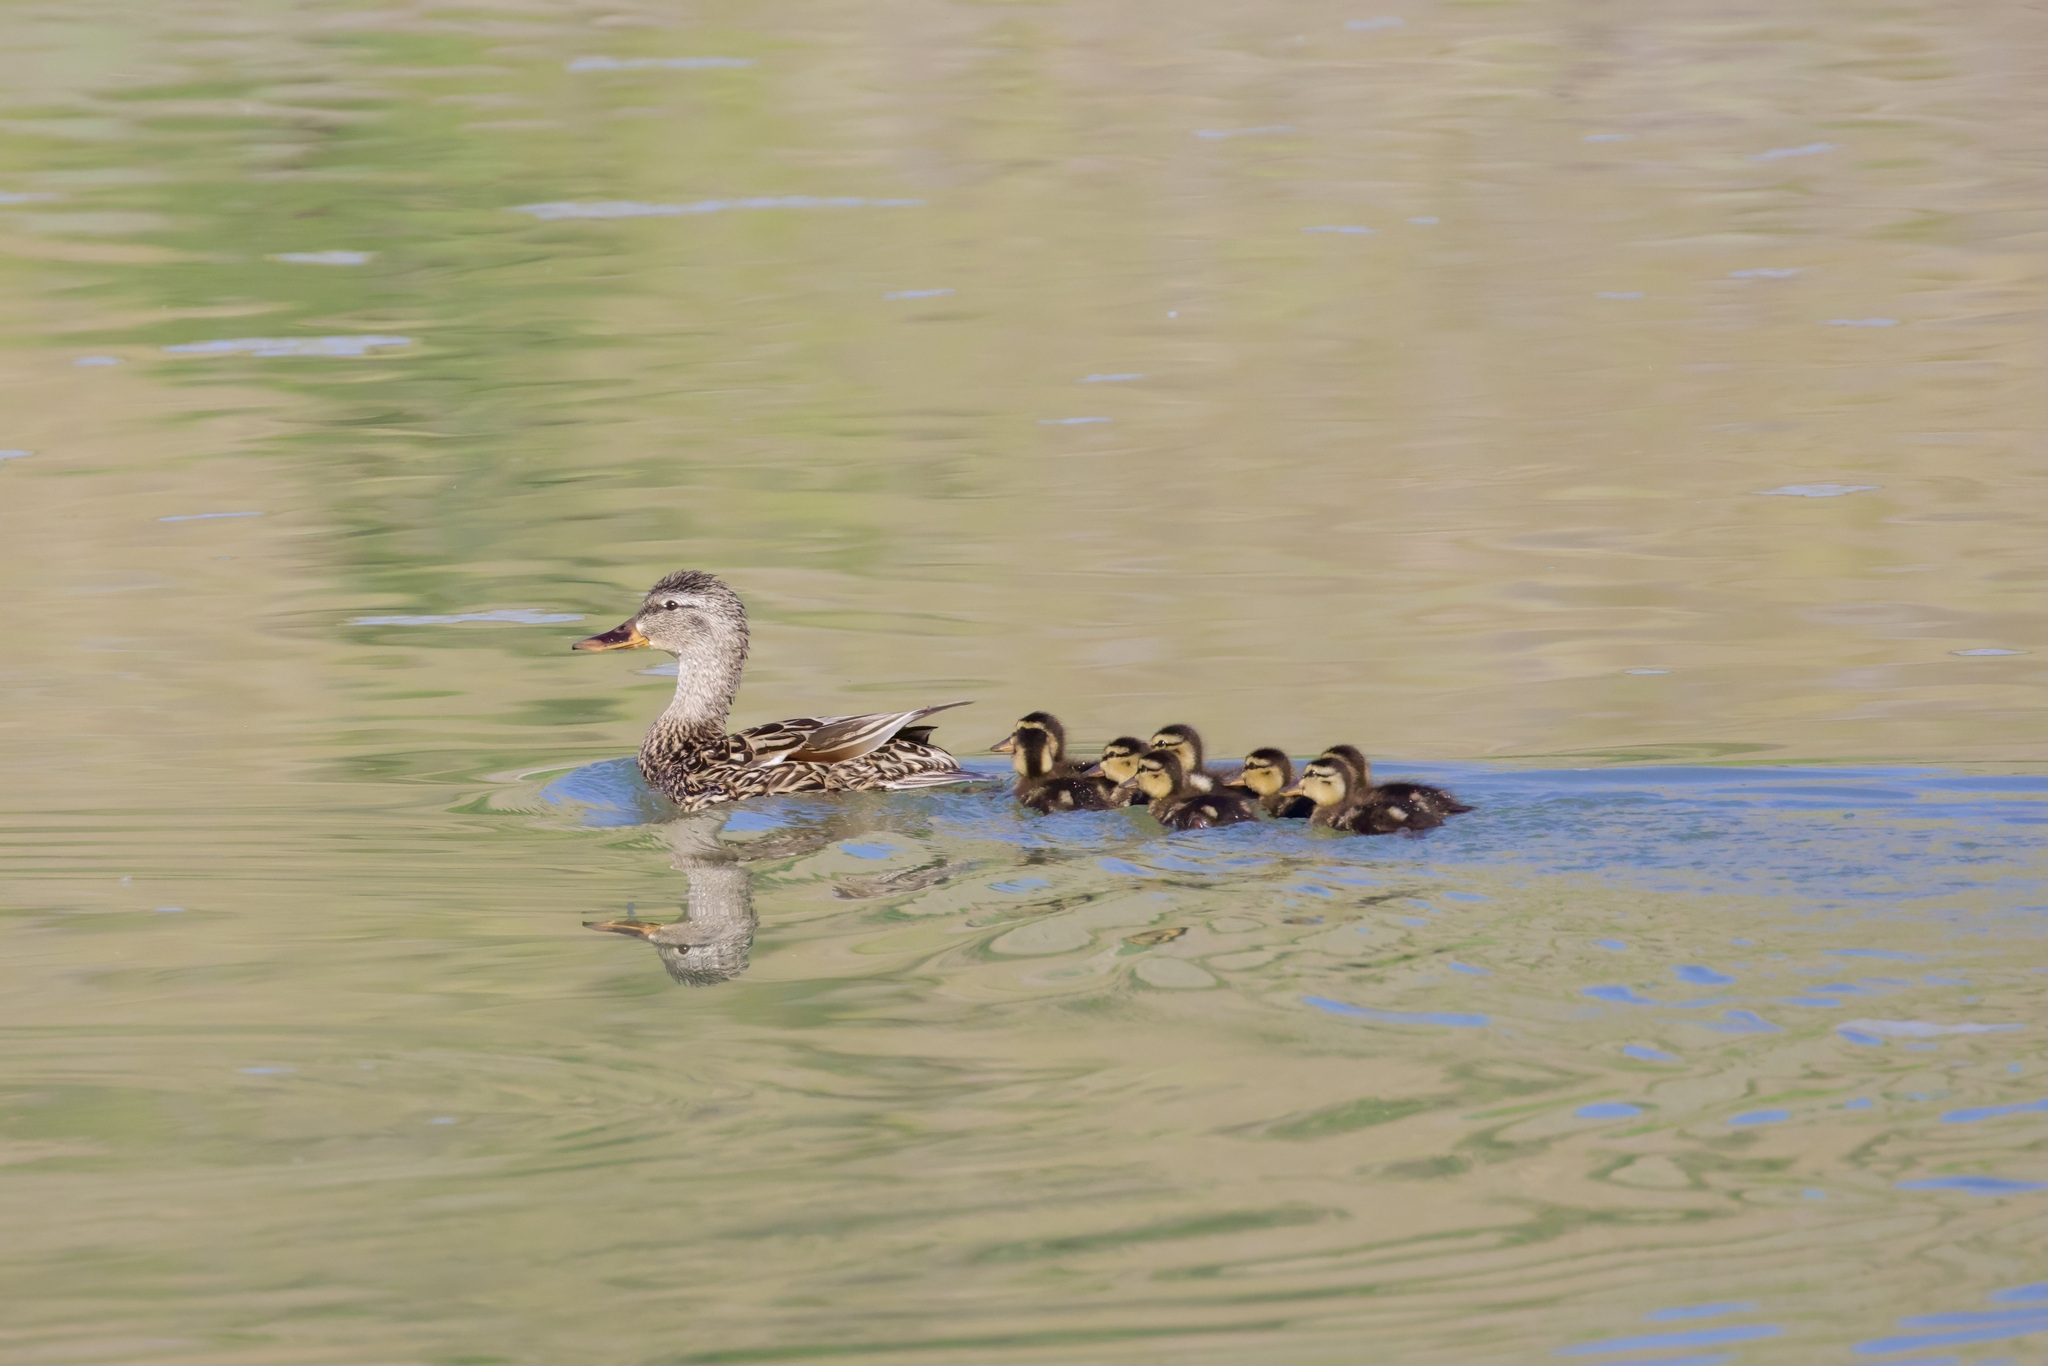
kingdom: Animalia
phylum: Chordata
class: Aves
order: Anseriformes
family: Anatidae
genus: Anas
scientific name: Anas platyrhynchos
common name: Mallard
